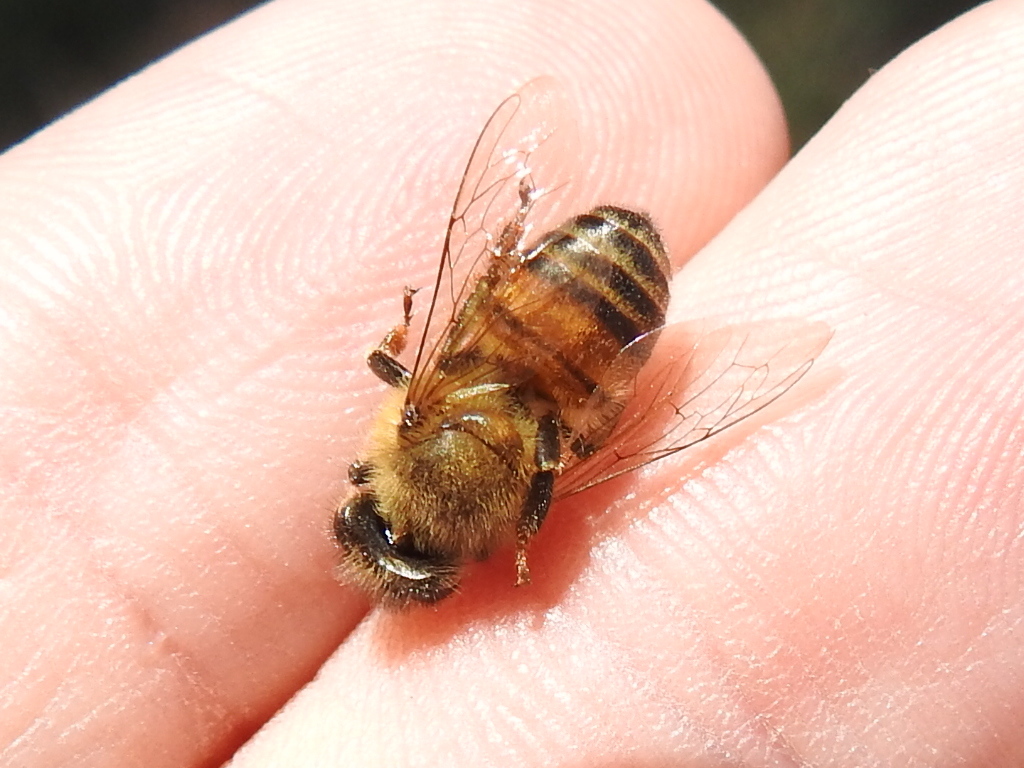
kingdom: Animalia
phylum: Arthropoda
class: Insecta
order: Hymenoptera
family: Apidae
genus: Apis
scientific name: Apis mellifera
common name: Honey bee
